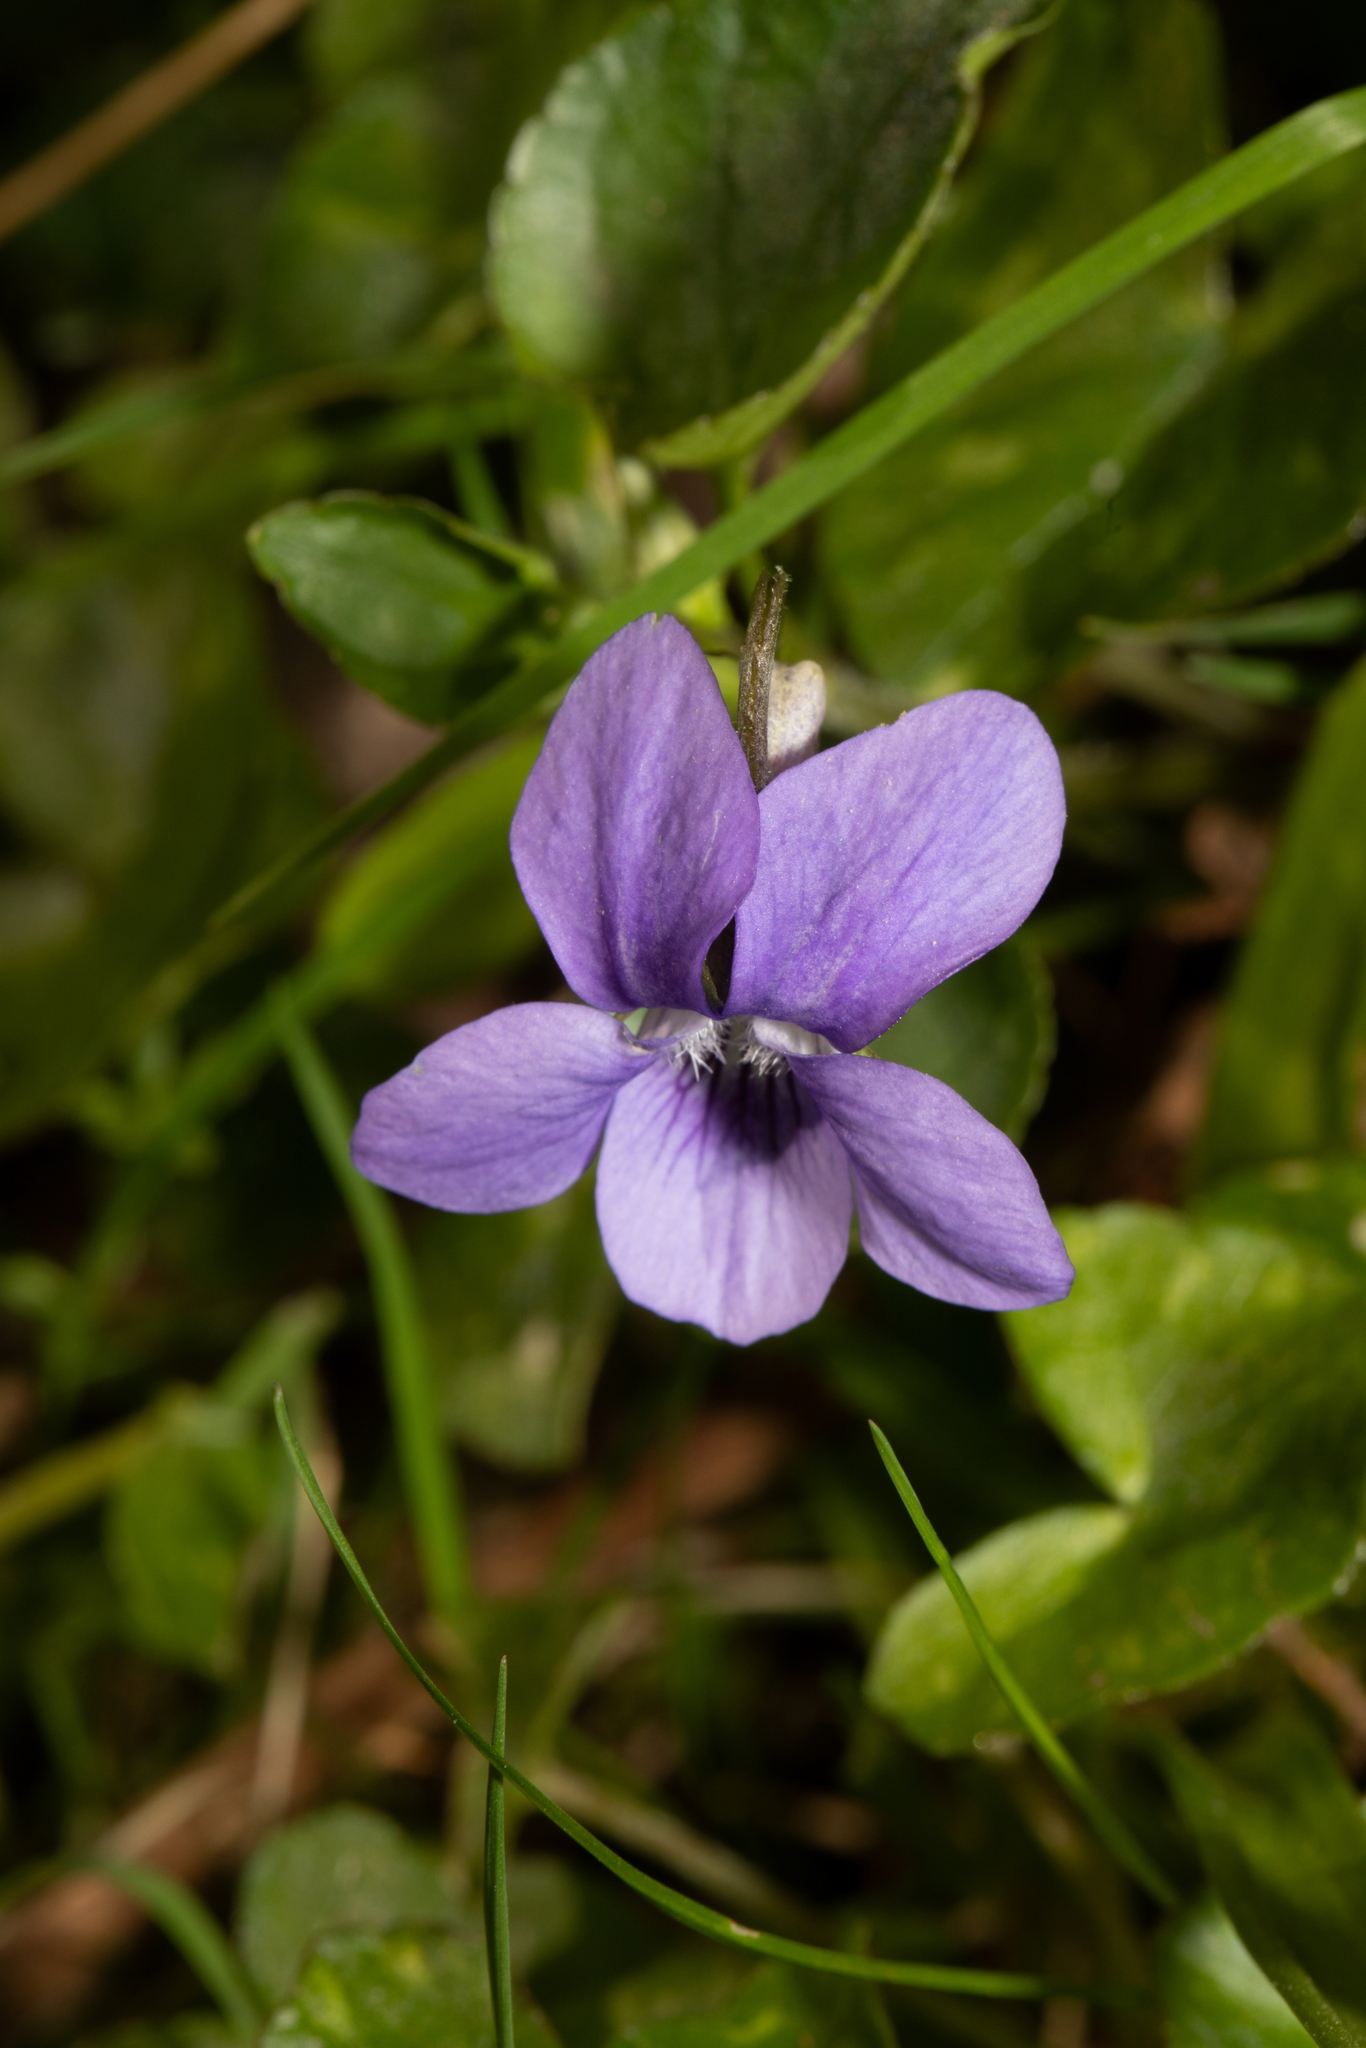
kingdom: Plantae
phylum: Tracheophyta
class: Magnoliopsida
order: Malpighiales
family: Violaceae
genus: Viola
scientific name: Viola riviniana
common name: Common dog-violet
